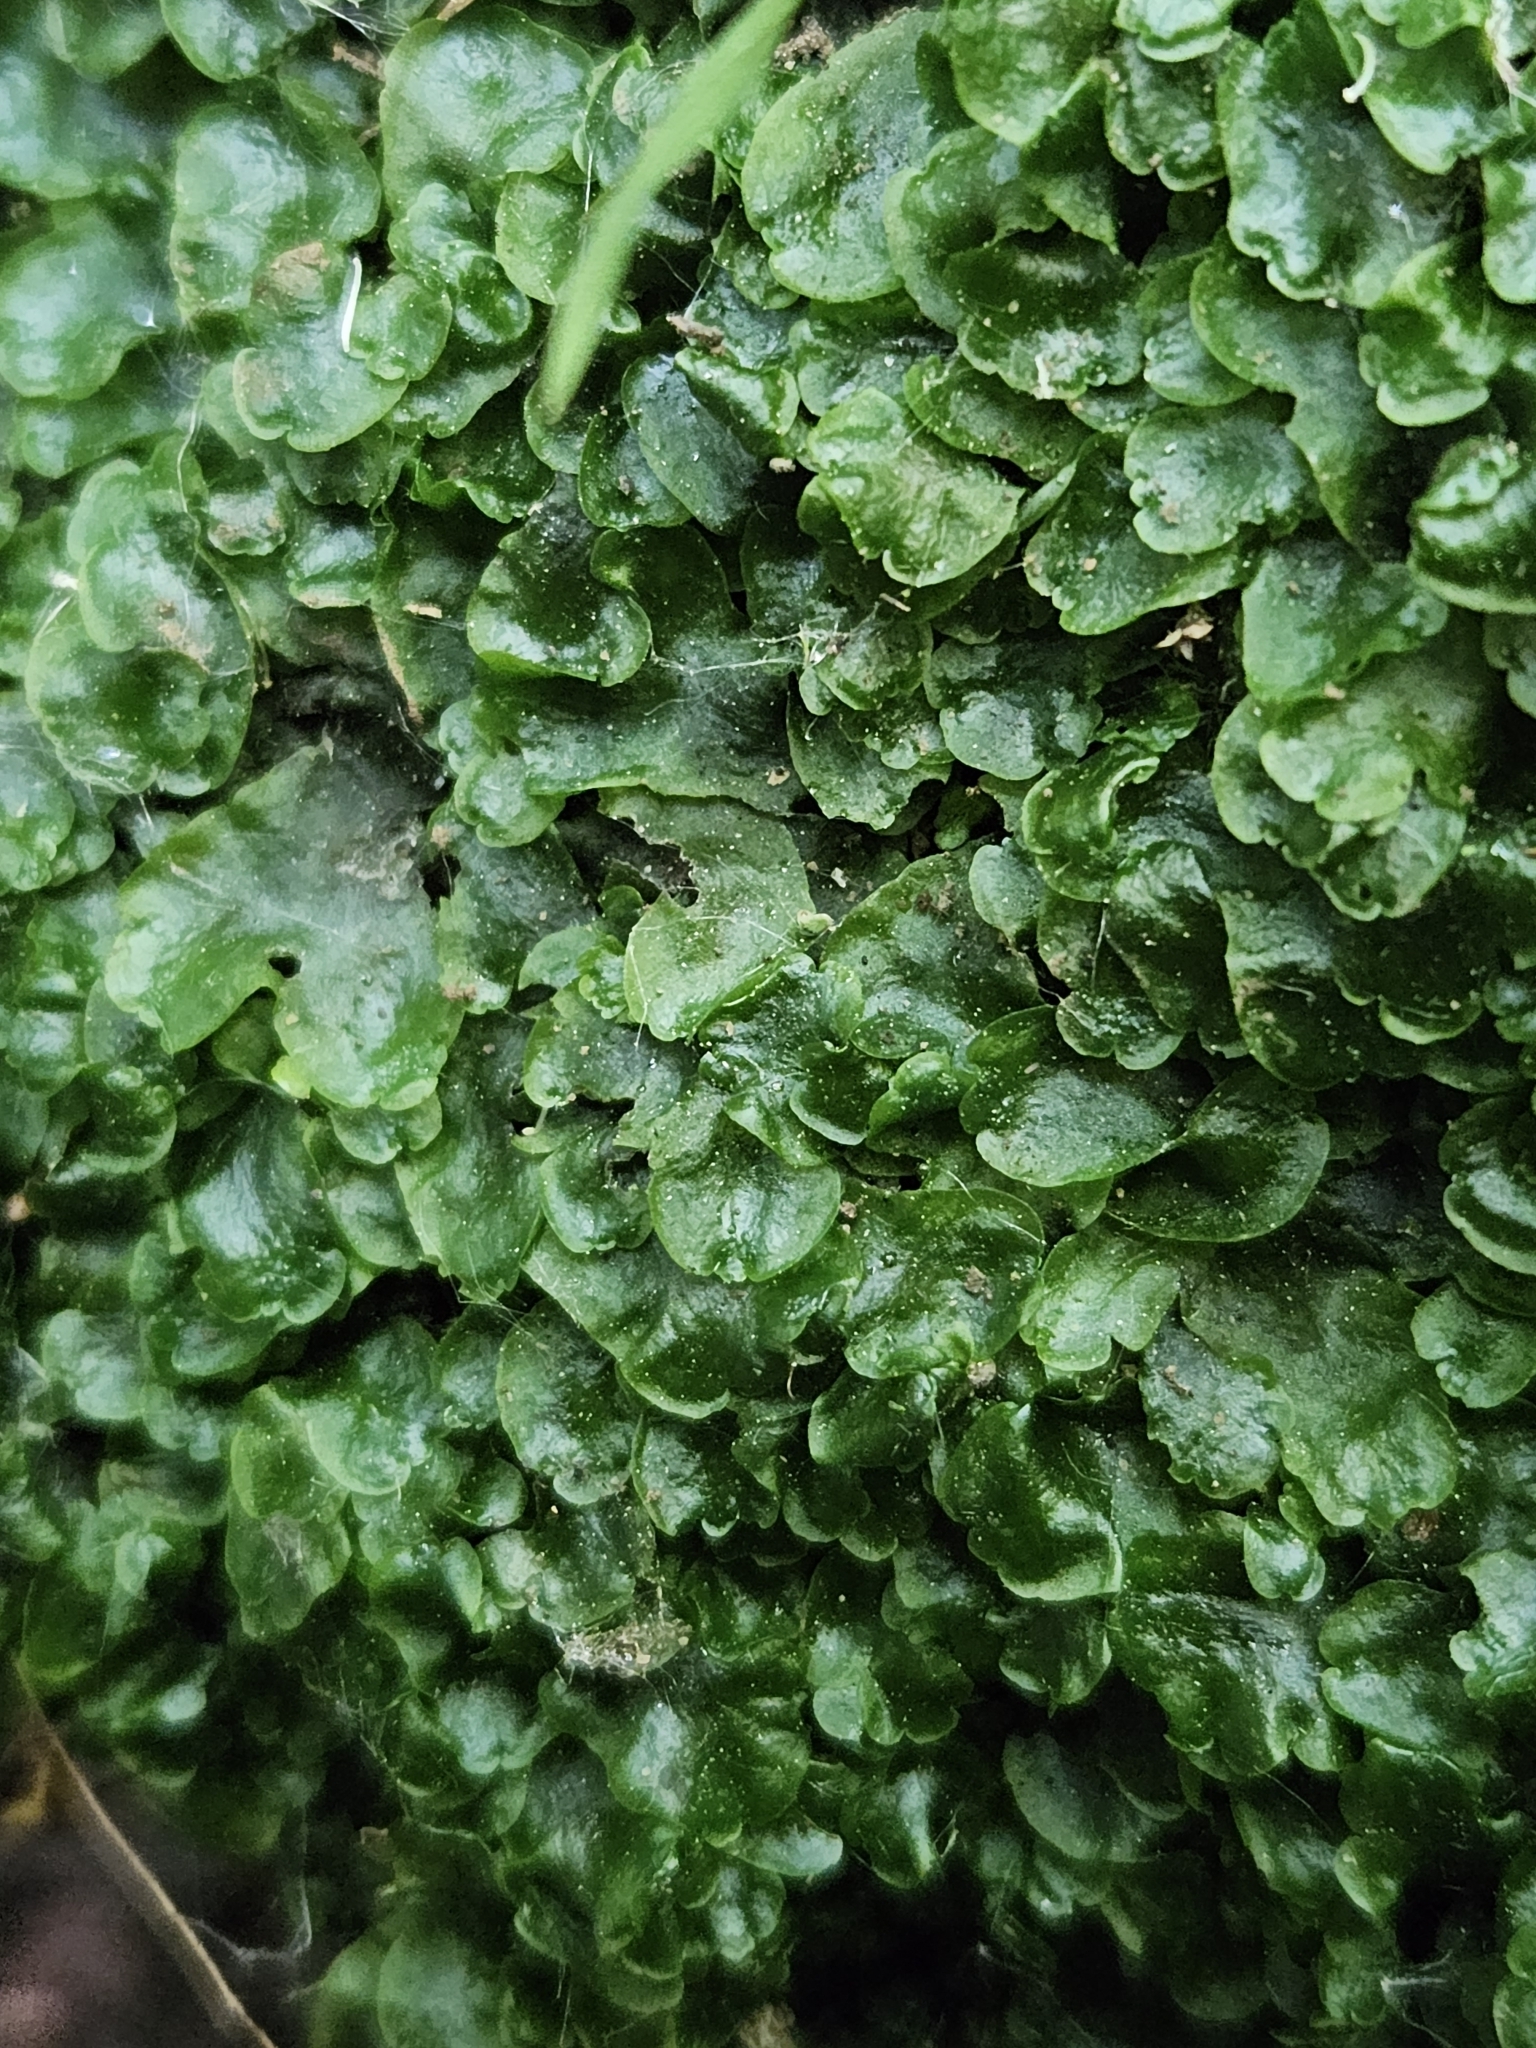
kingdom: Plantae
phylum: Marchantiophyta
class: Jungermanniopsida
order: Pelliales
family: Pelliaceae
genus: Pellia
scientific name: Pellia epiphylla
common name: Common pellia
